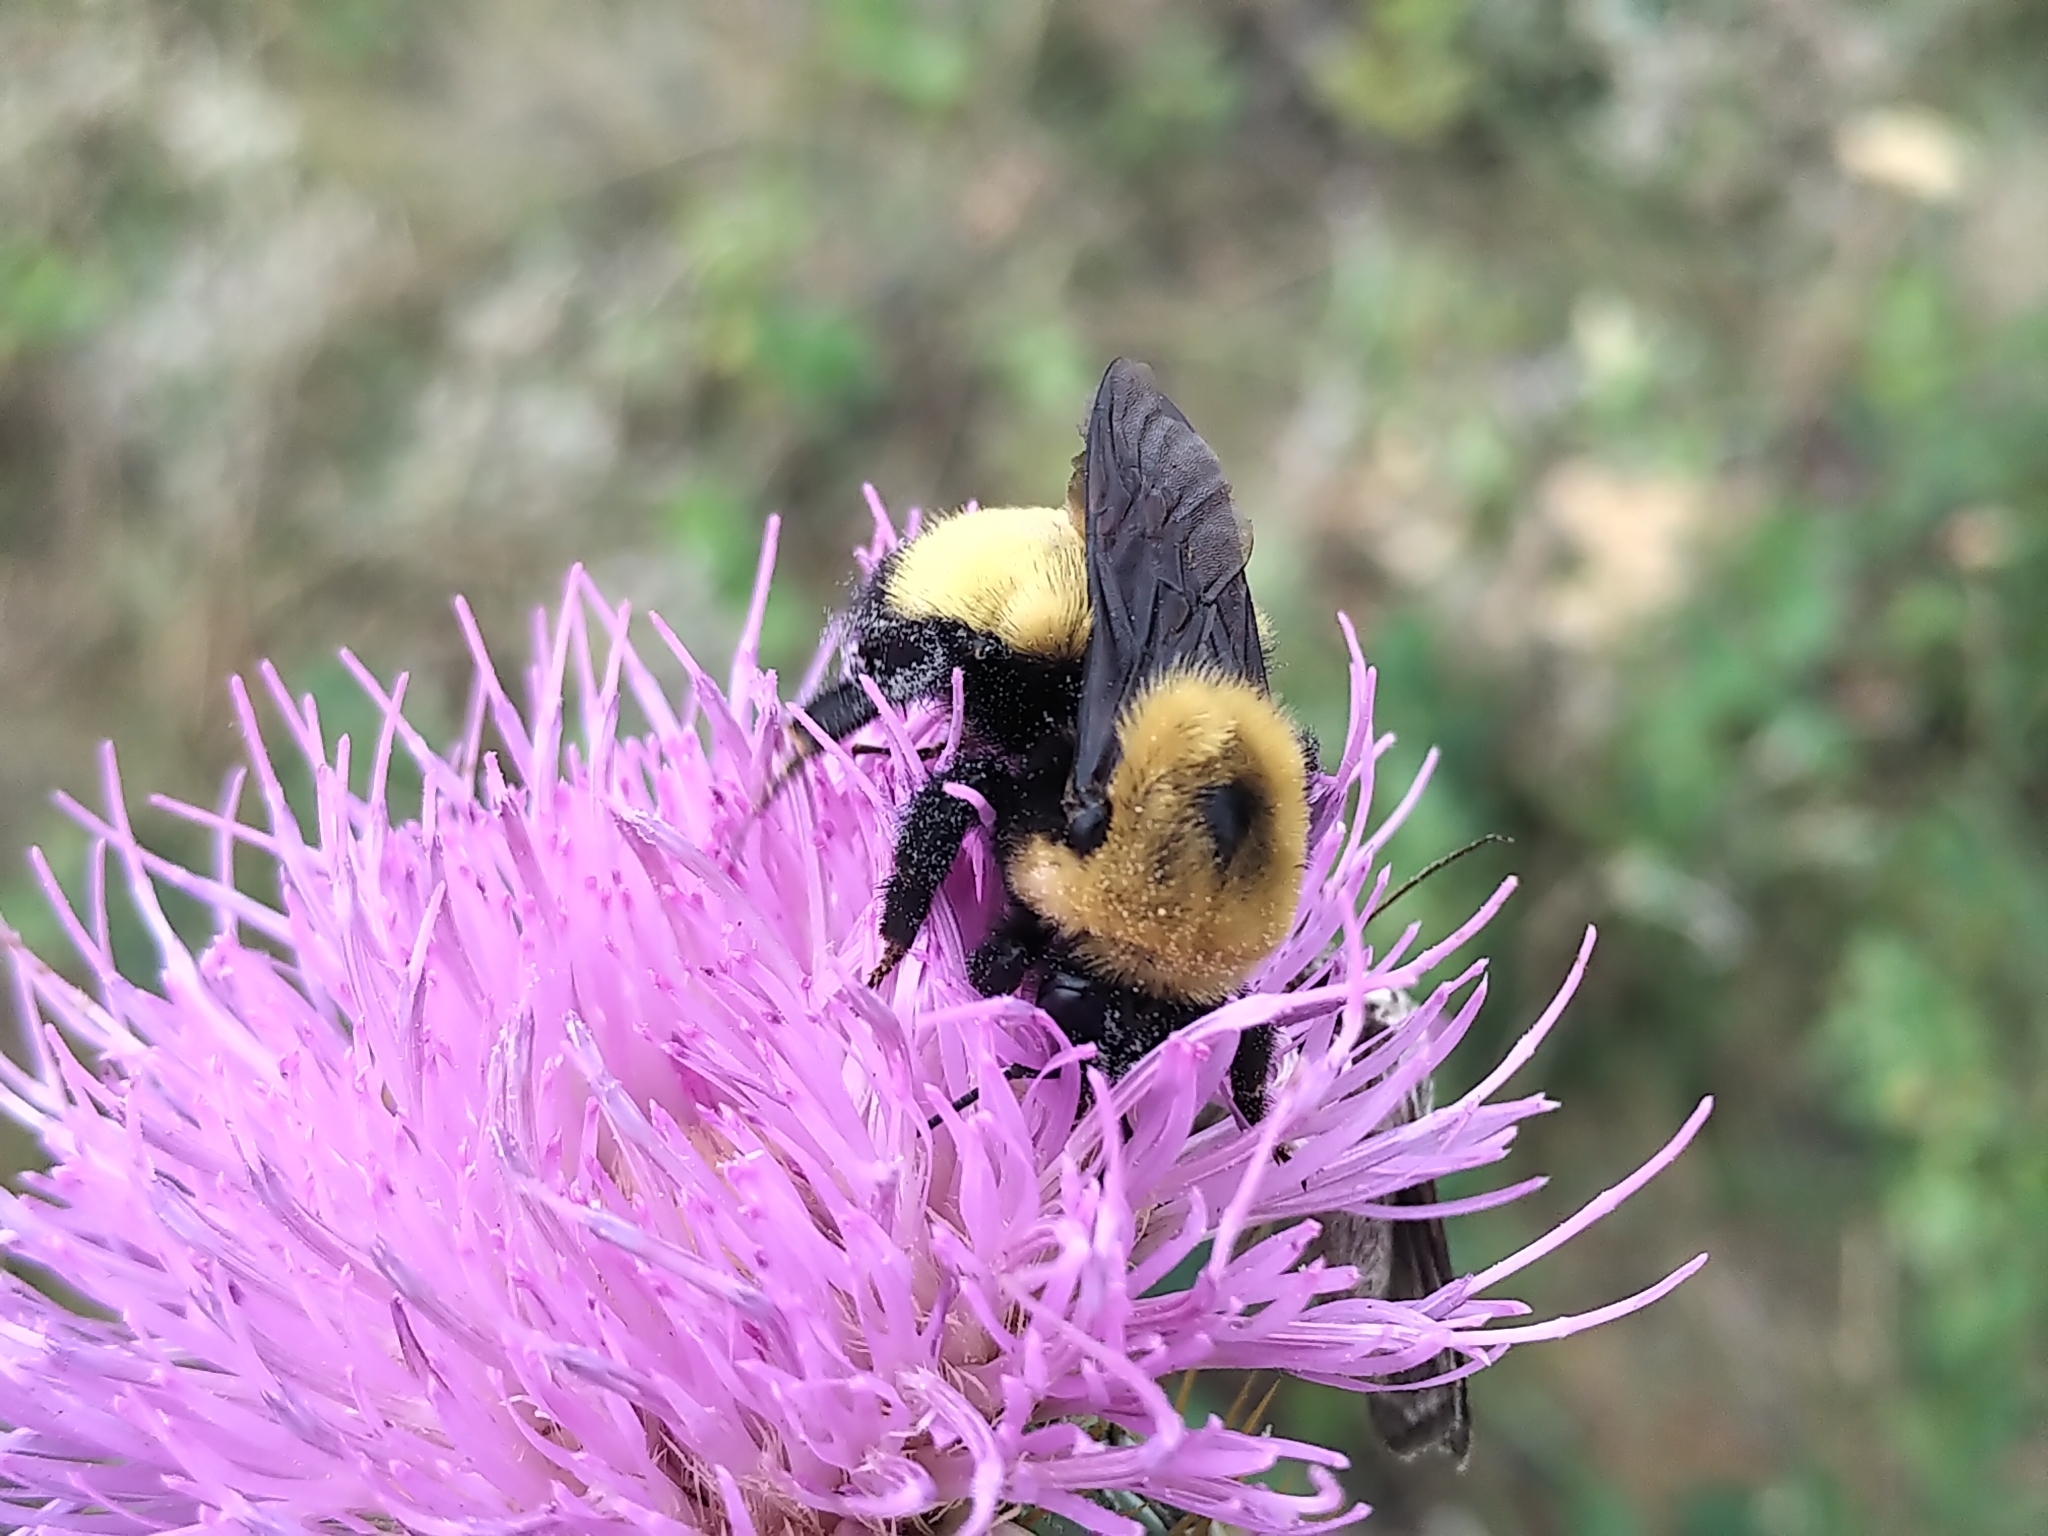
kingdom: Animalia
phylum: Arthropoda
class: Insecta
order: Hymenoptera
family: Apidae
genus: Bombus
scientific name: Bombus nevadensis
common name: Nevada bumble bee
